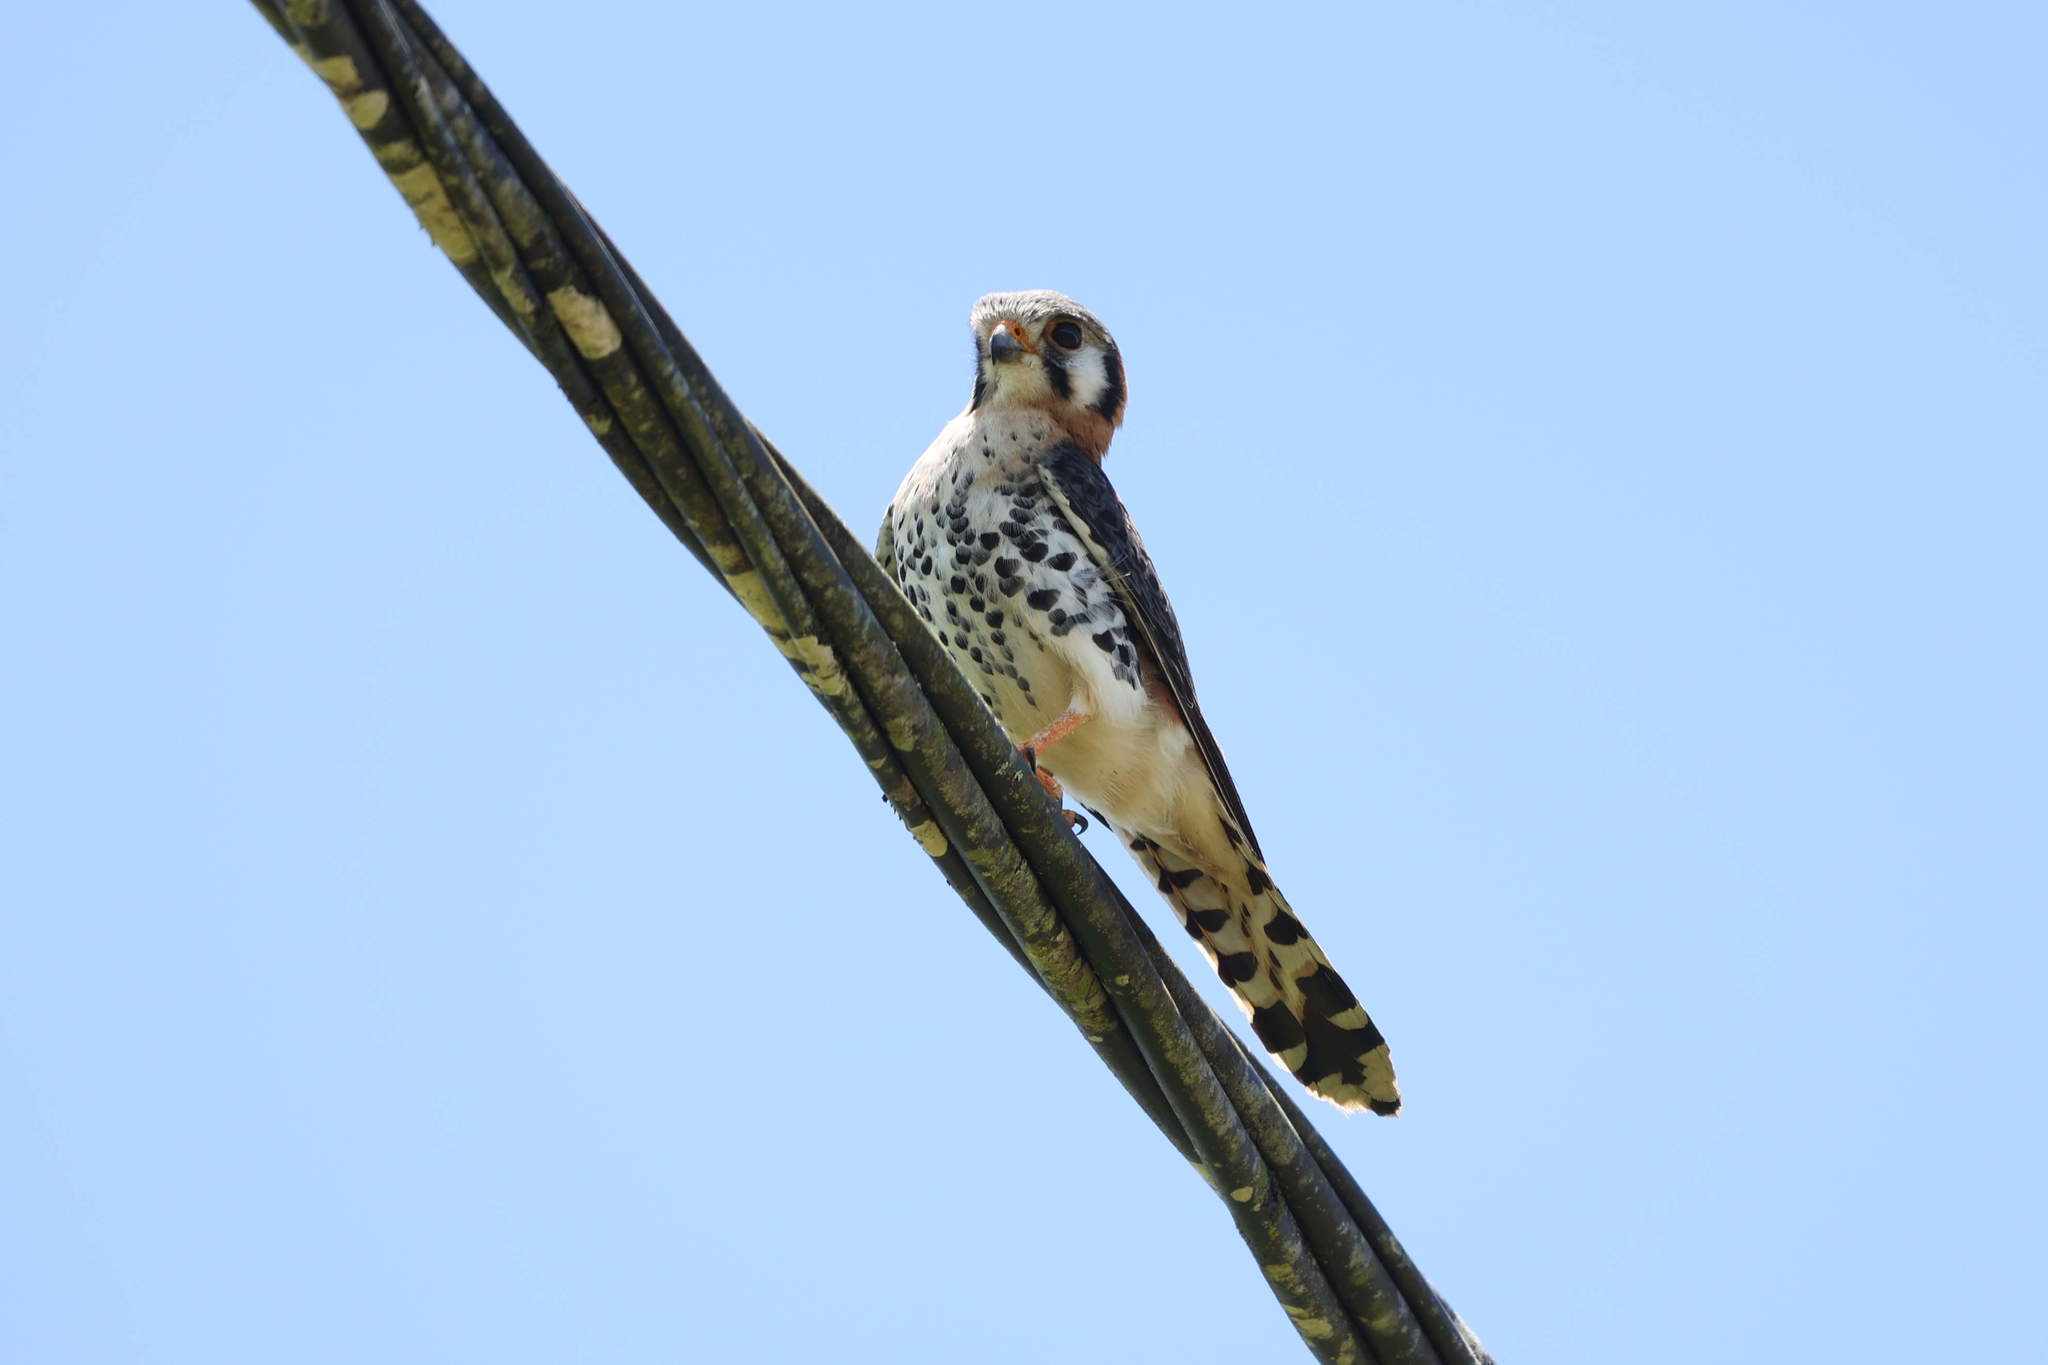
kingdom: Animalia
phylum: Chordata
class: Aves
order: Falconiformes
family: Falconidae
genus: Falco
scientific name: Falco sparverius
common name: American kestrel
